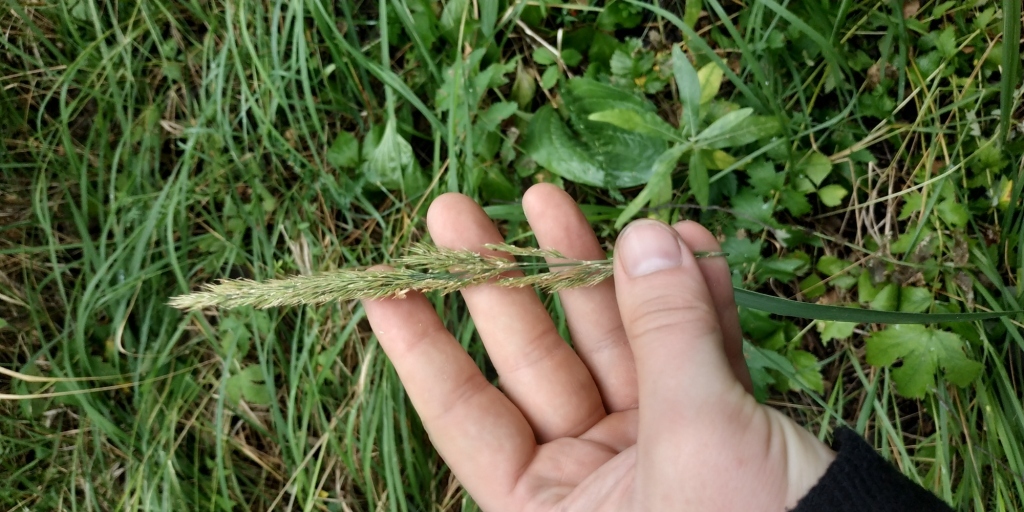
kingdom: Plantae
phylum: Tracheophyta
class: Liliopsida
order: Poales
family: Poaceae
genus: Calamagrostis
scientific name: Calamagrostis arundinacea
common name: Metskastik
